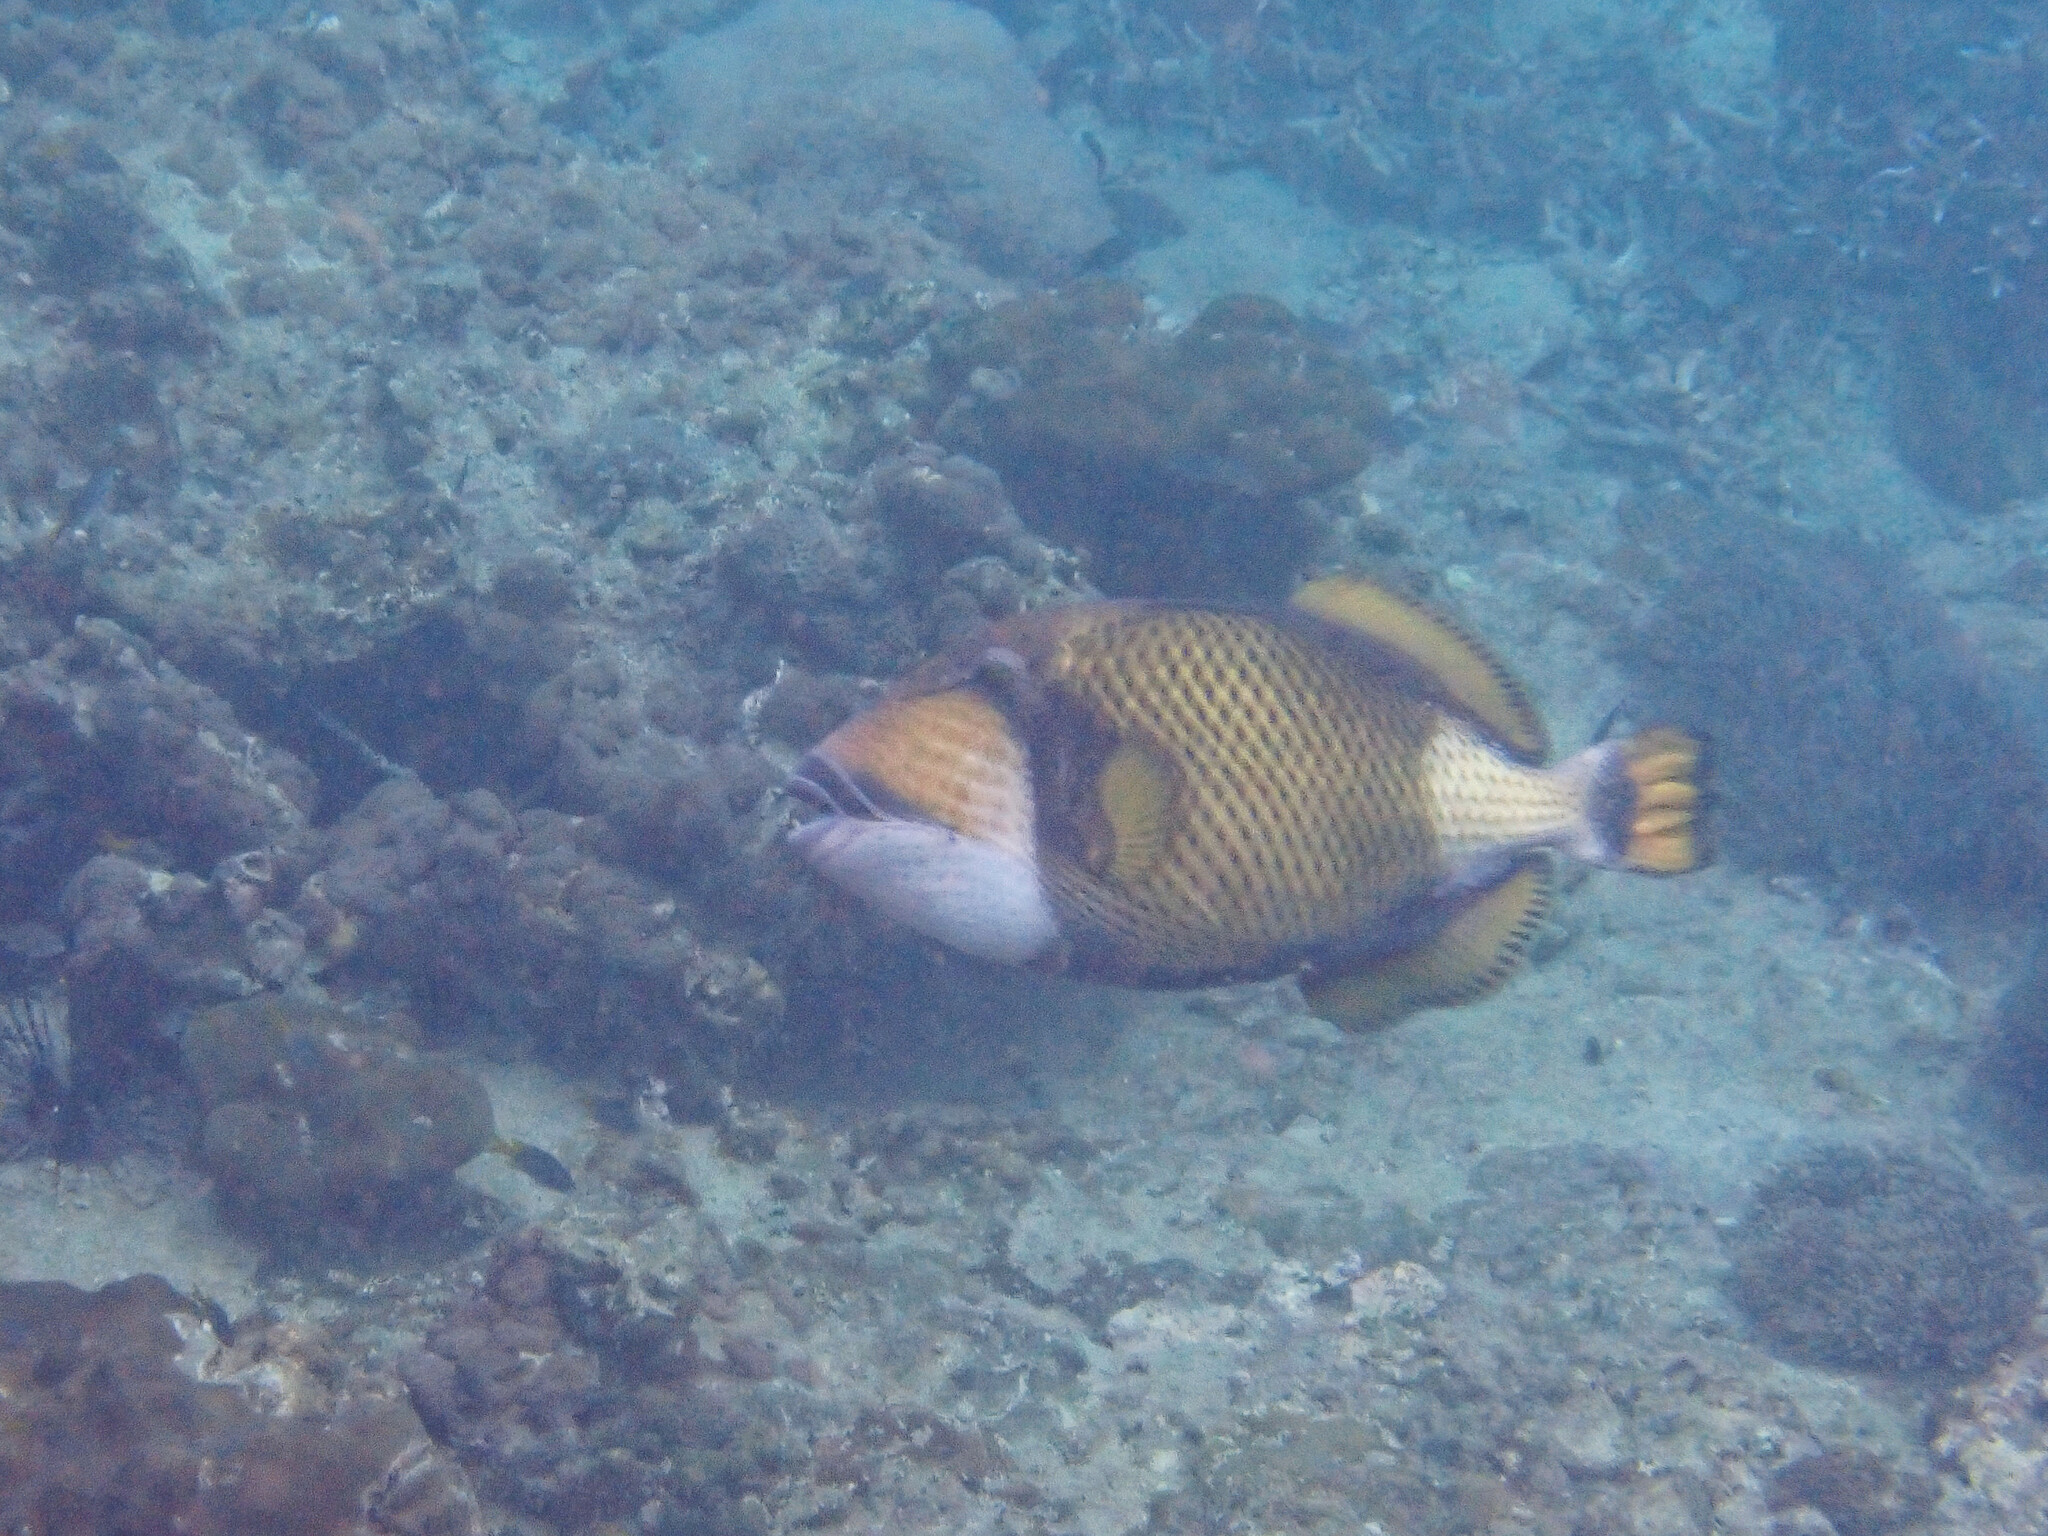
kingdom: Animalia
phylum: Chordata
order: Tetraodontiformes
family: Balistidae
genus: Balistoides
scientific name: Balistoides viridescens
